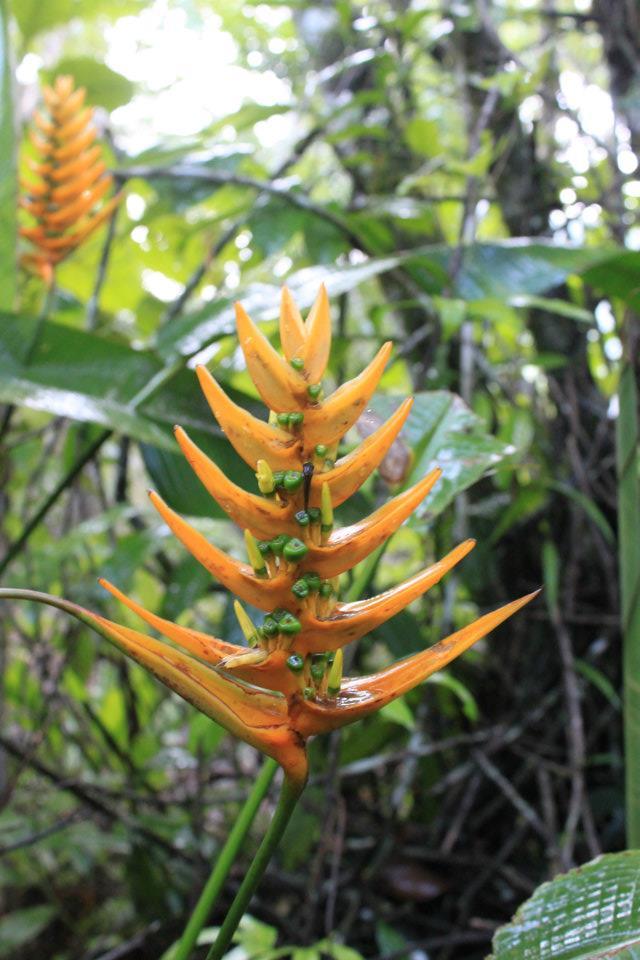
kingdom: Plantae
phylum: Tracheophyta
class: Liliopsida
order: Zingiberales
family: Heliconiaceae
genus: Heliconia
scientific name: Heliconia librata
